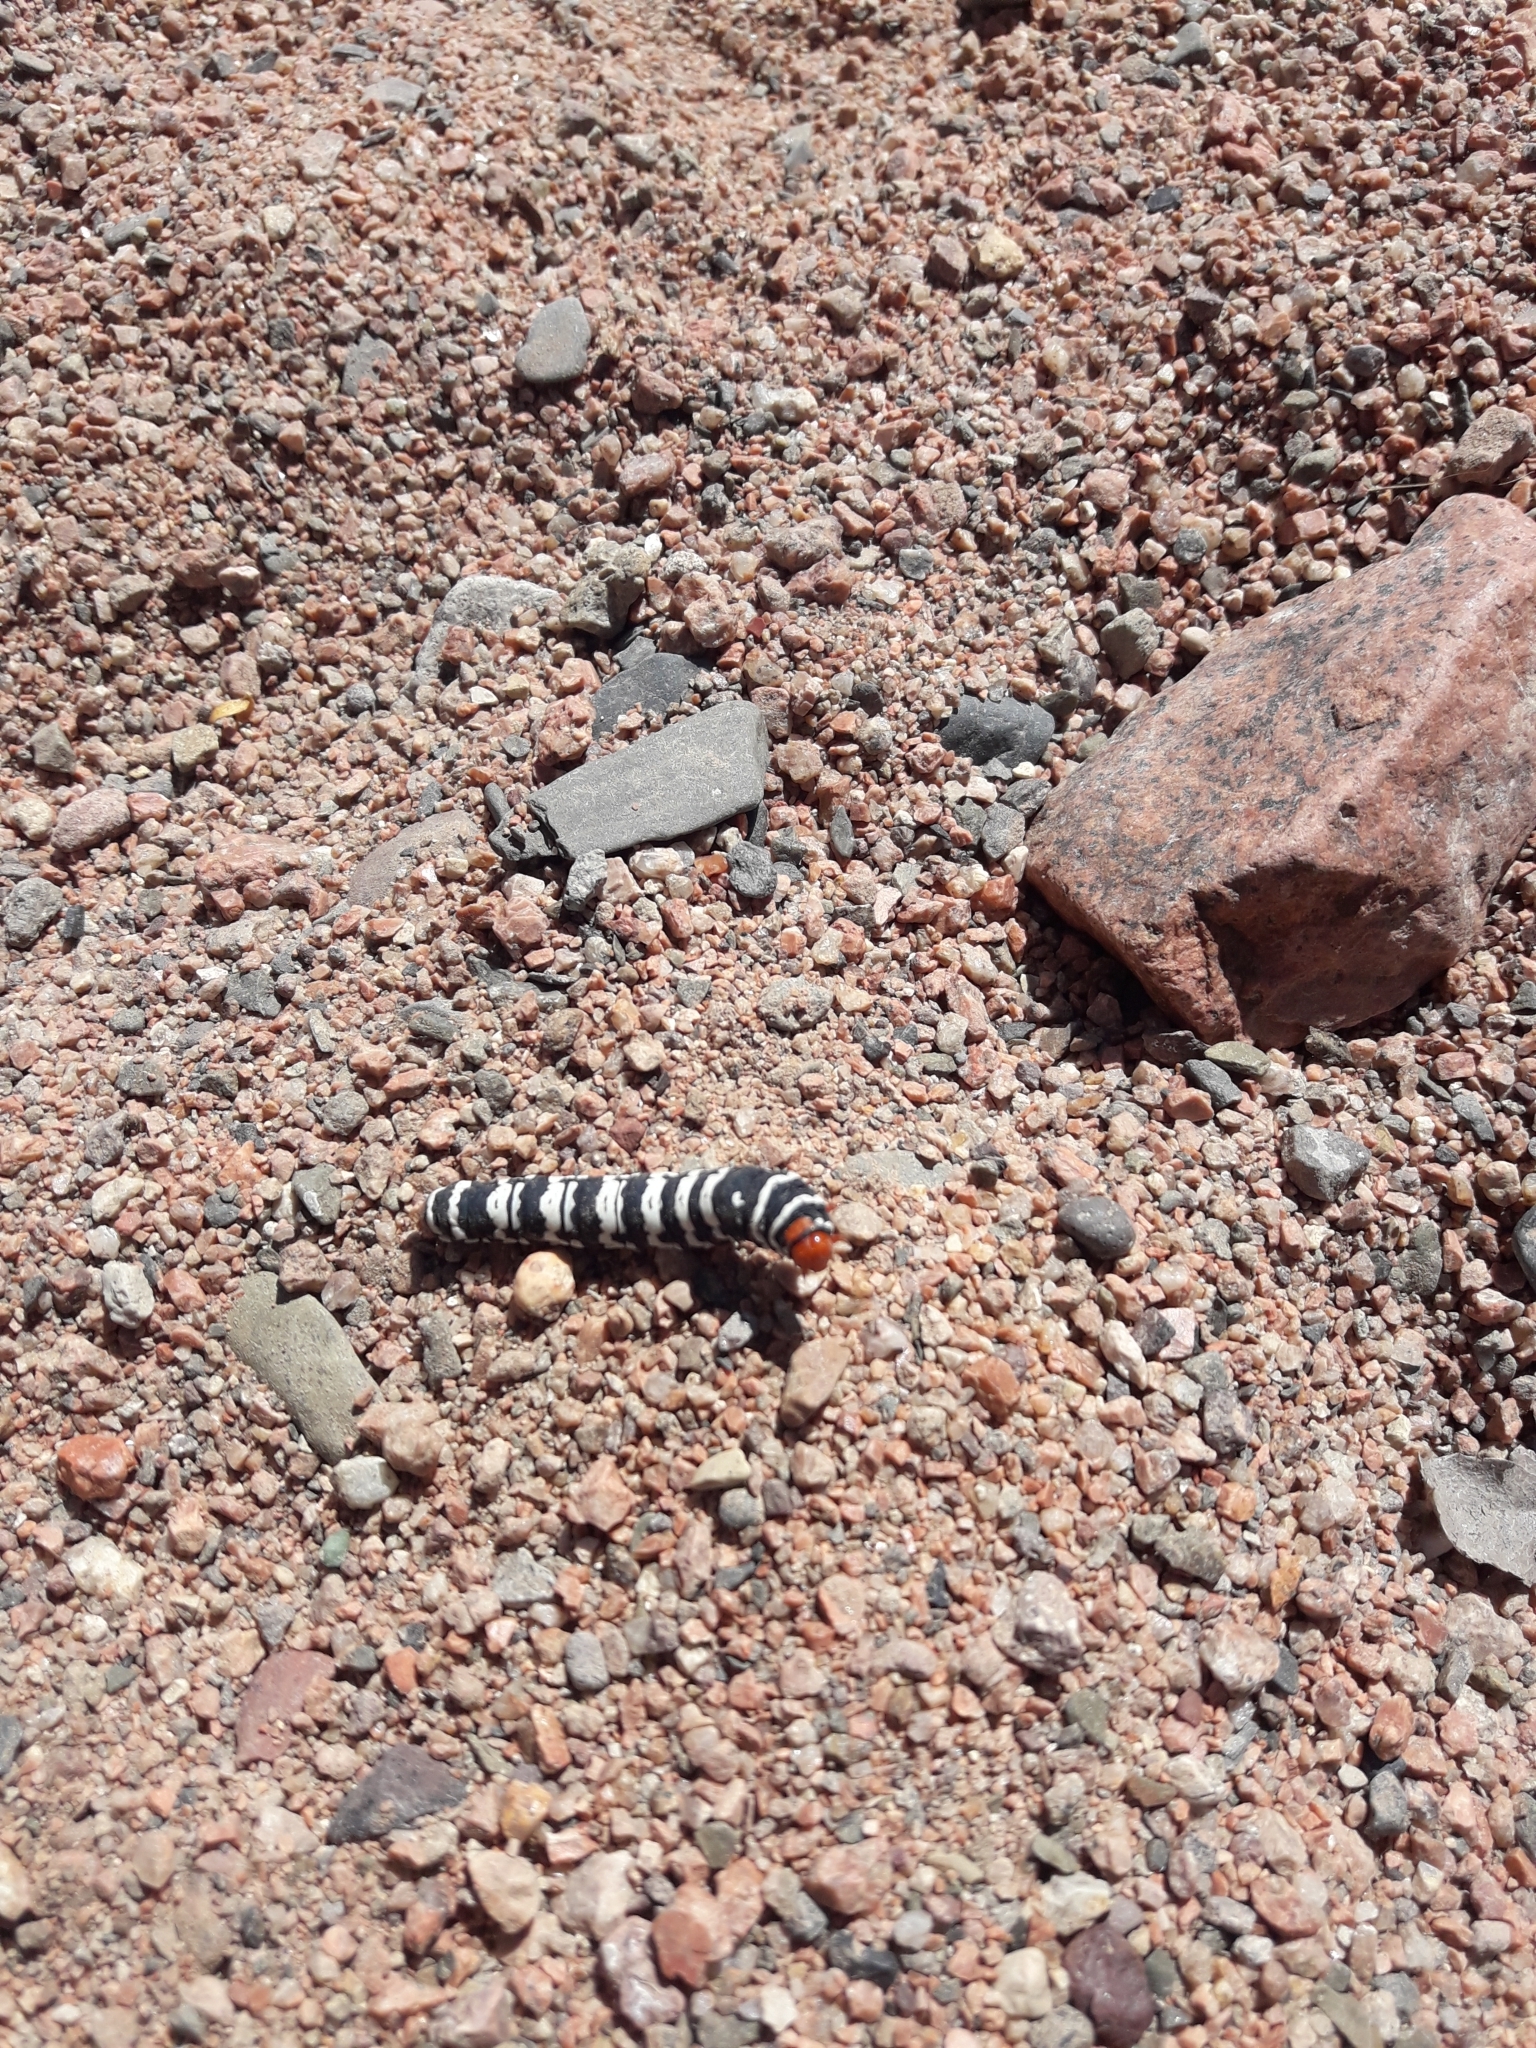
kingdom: Animalia
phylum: Arthropoda
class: Insecta
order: Lepidoptera
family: Noctuidae
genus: Chlanidophora
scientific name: Chlanidophora patagiata
